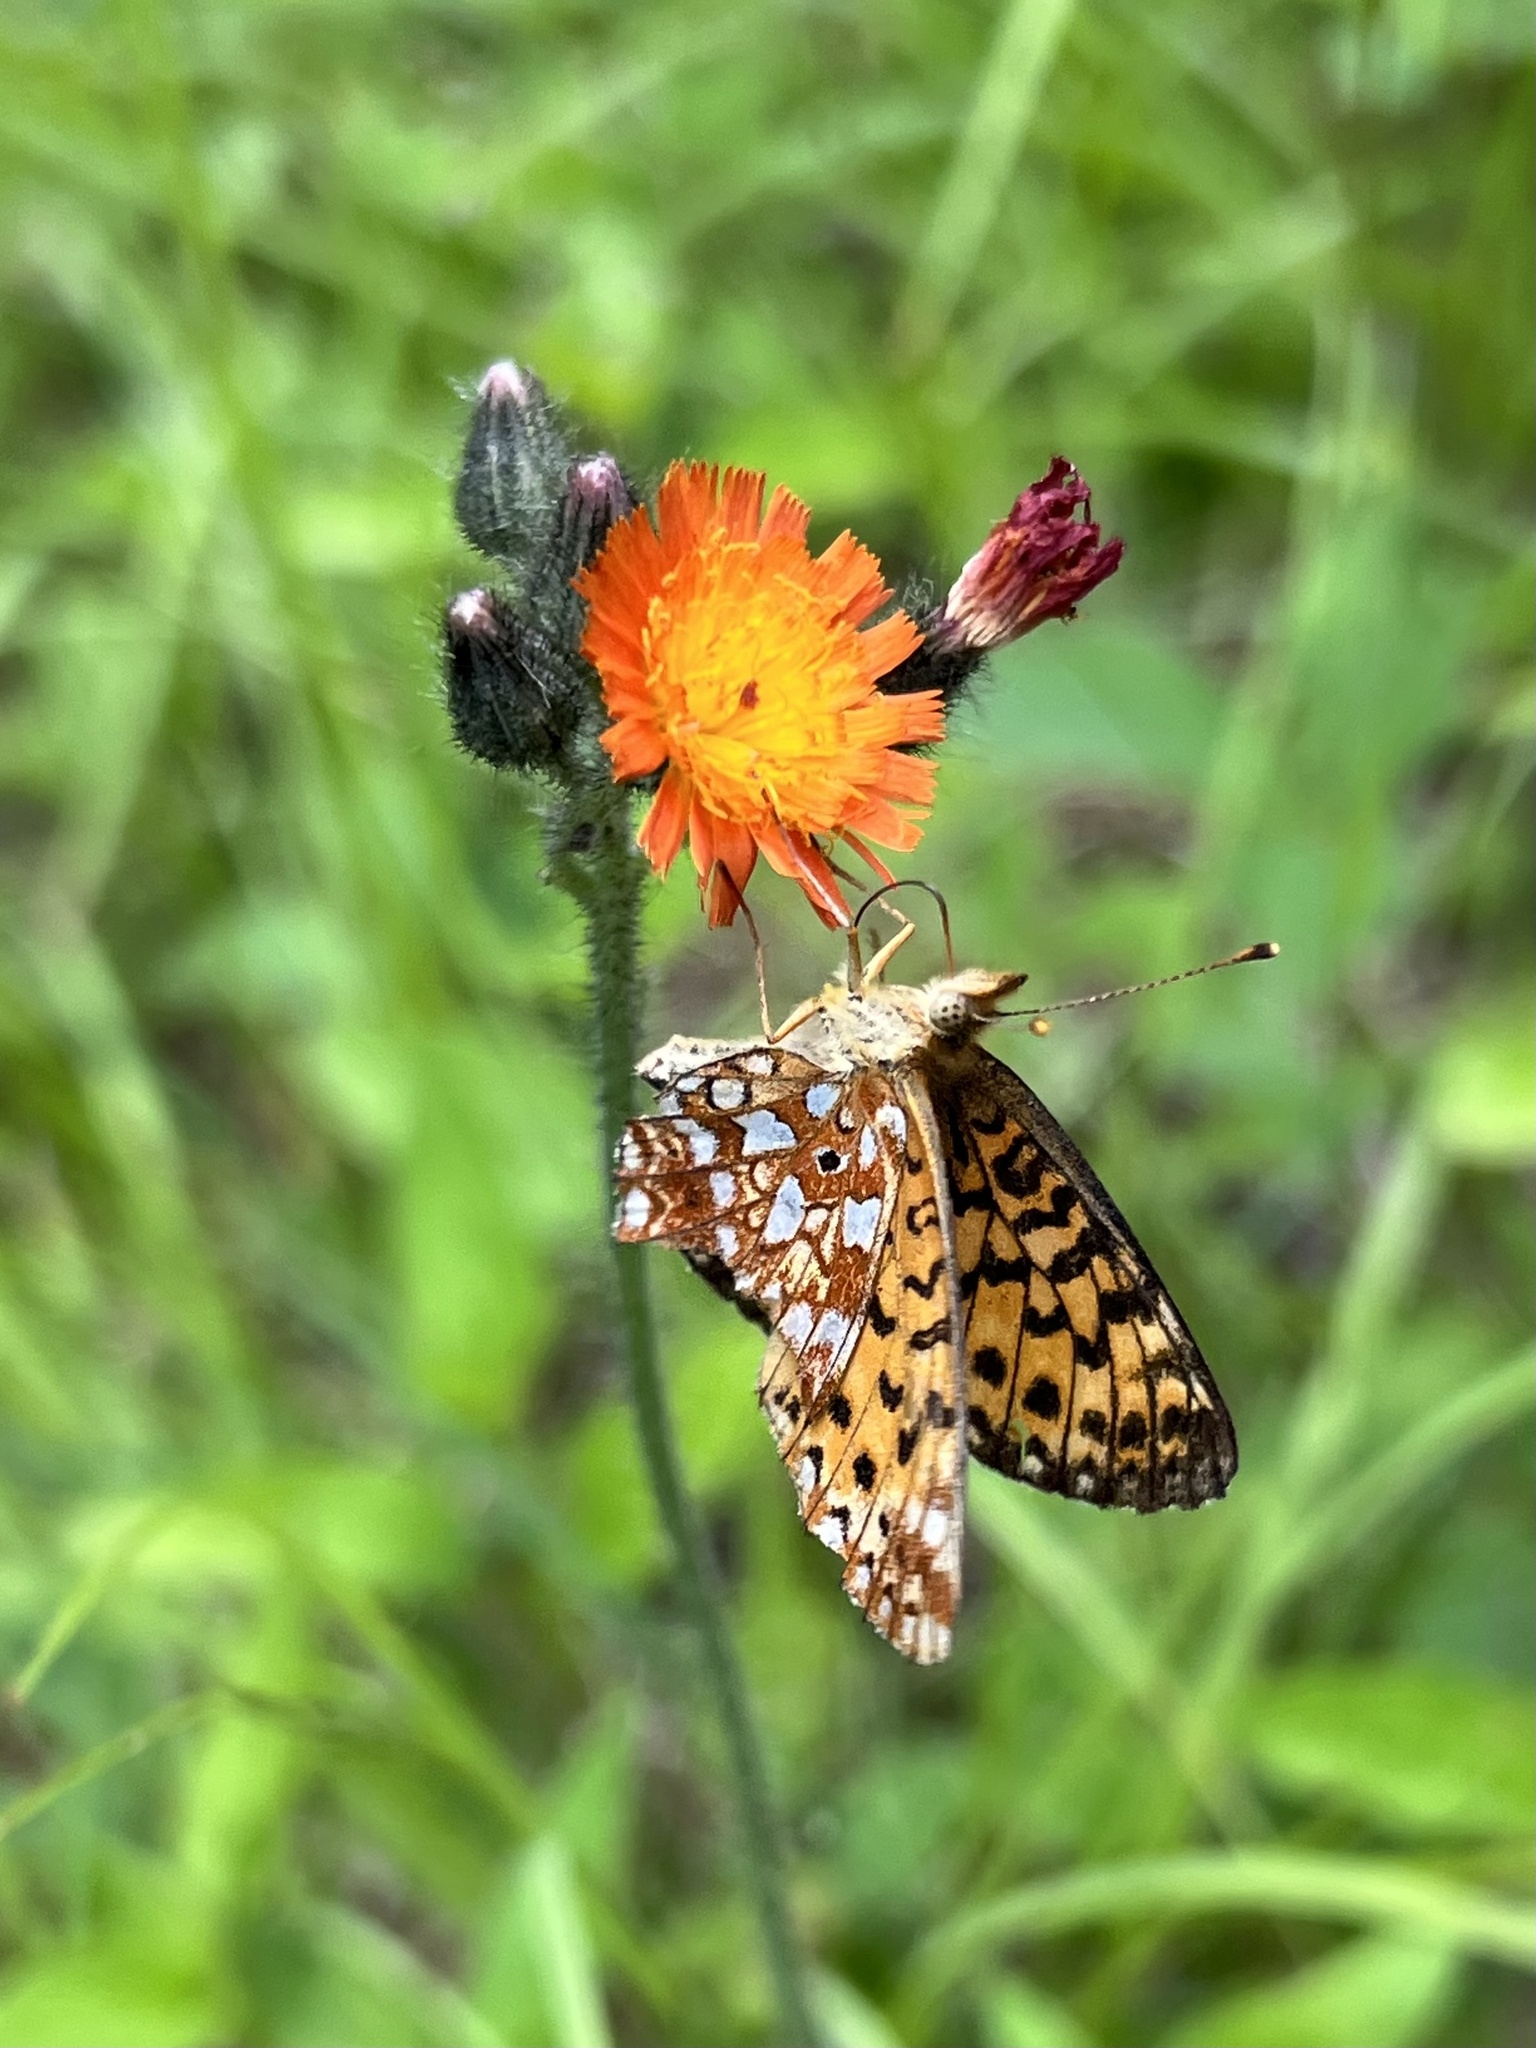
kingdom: Animalia
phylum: Arthropoda
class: Insecta
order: Lepidoptera
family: Nymphalidae
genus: Boloria
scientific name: Boloria
